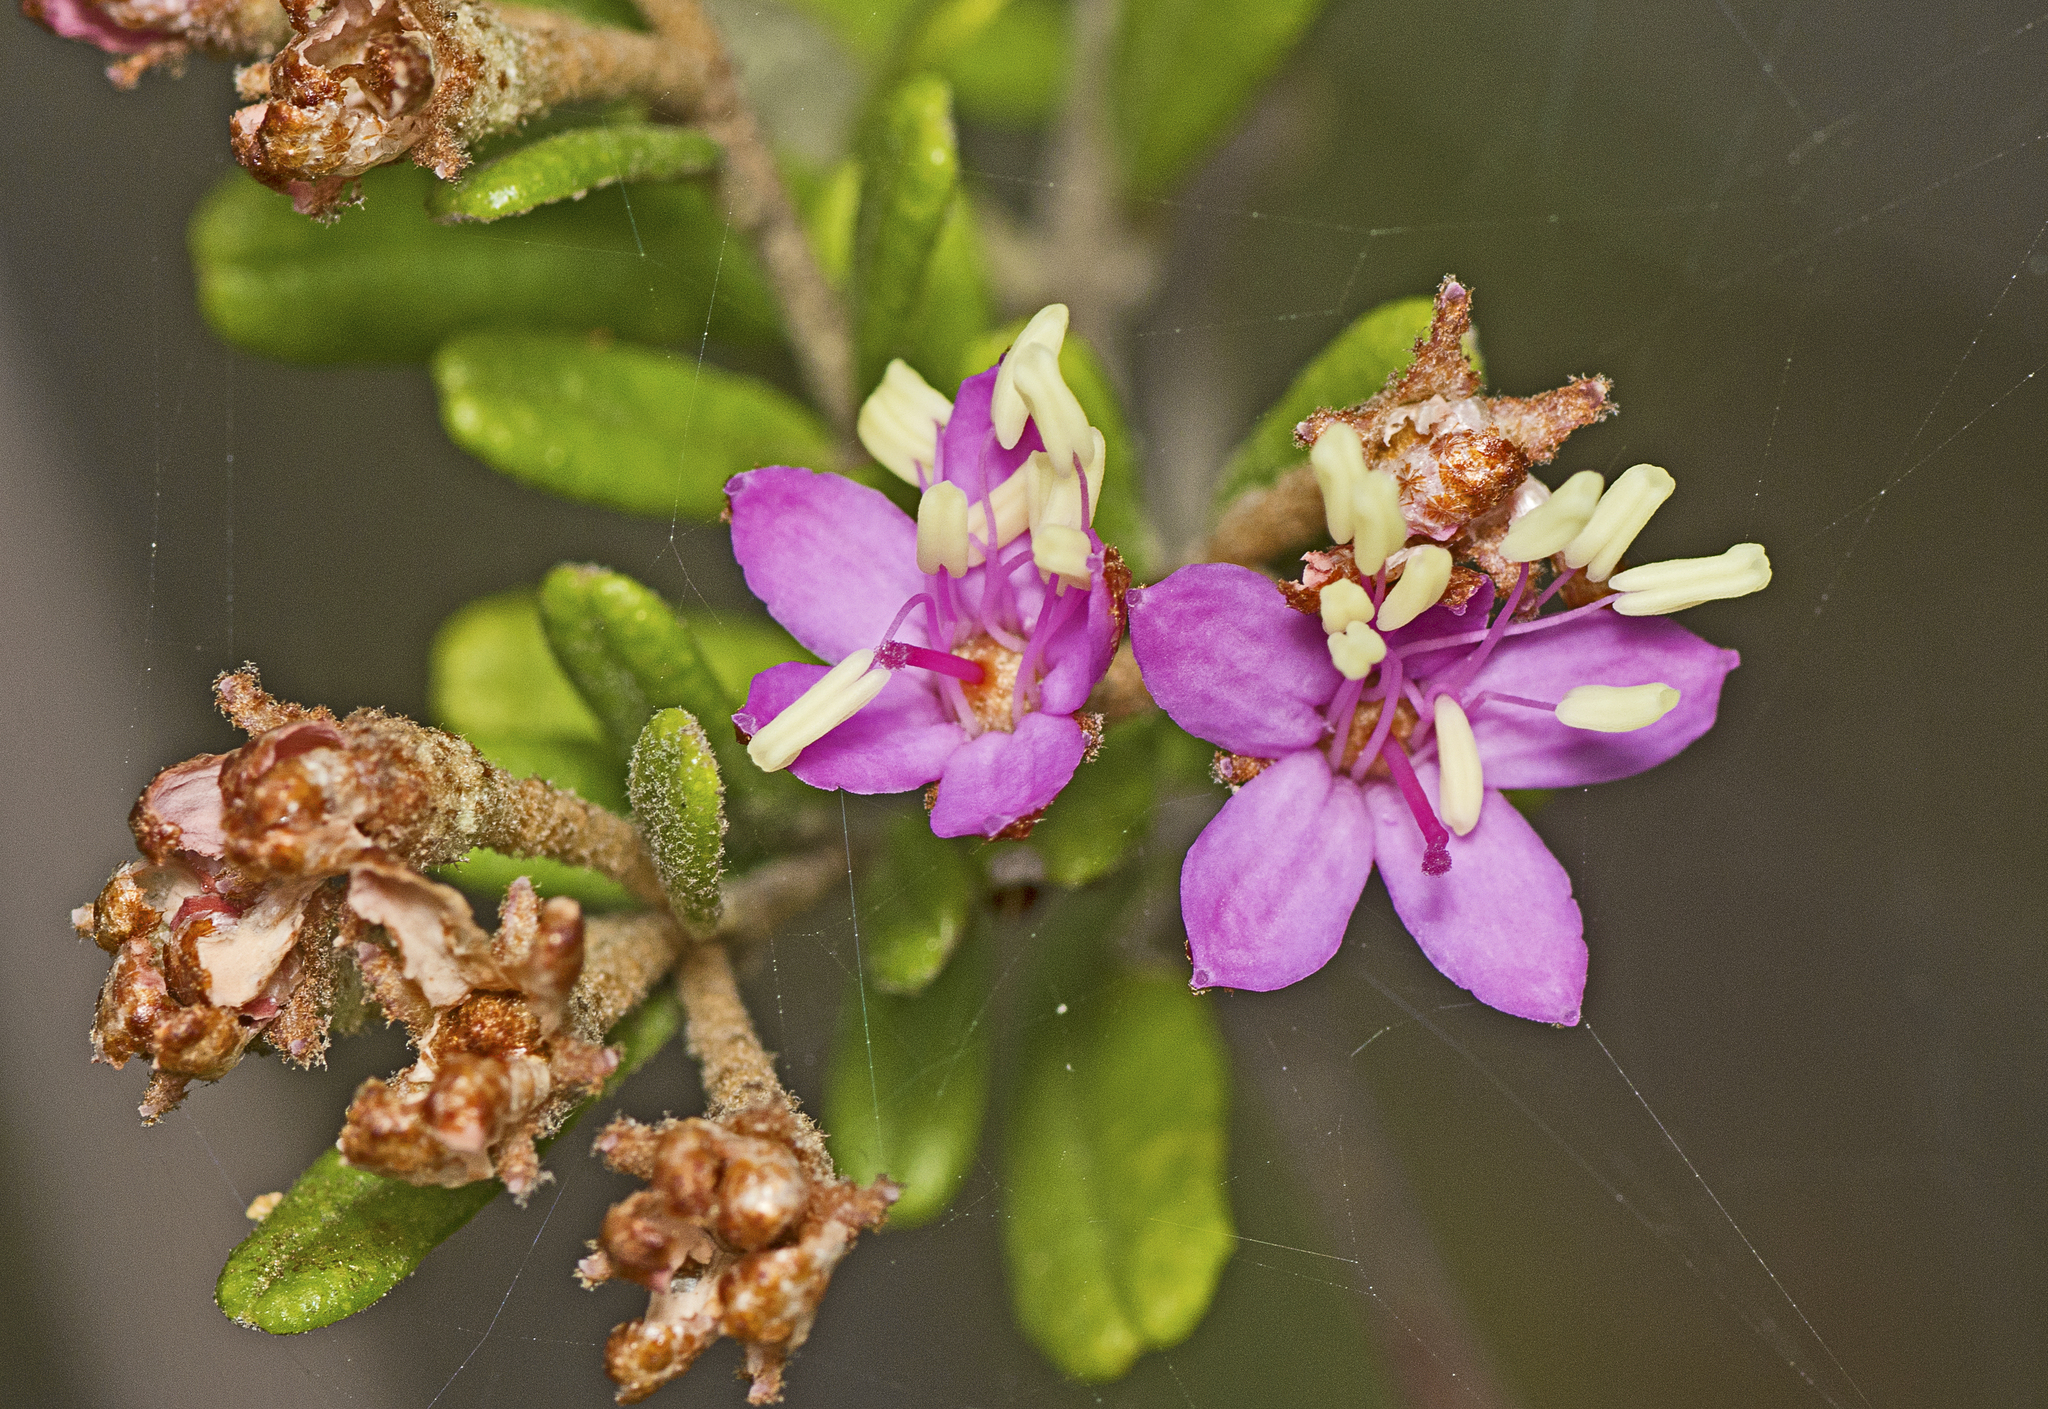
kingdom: Plantae
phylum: Tracheophyta
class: Magnoliopsida
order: Sapindales
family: Rutaceae
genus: Phebalium
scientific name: Phebalium nottii
